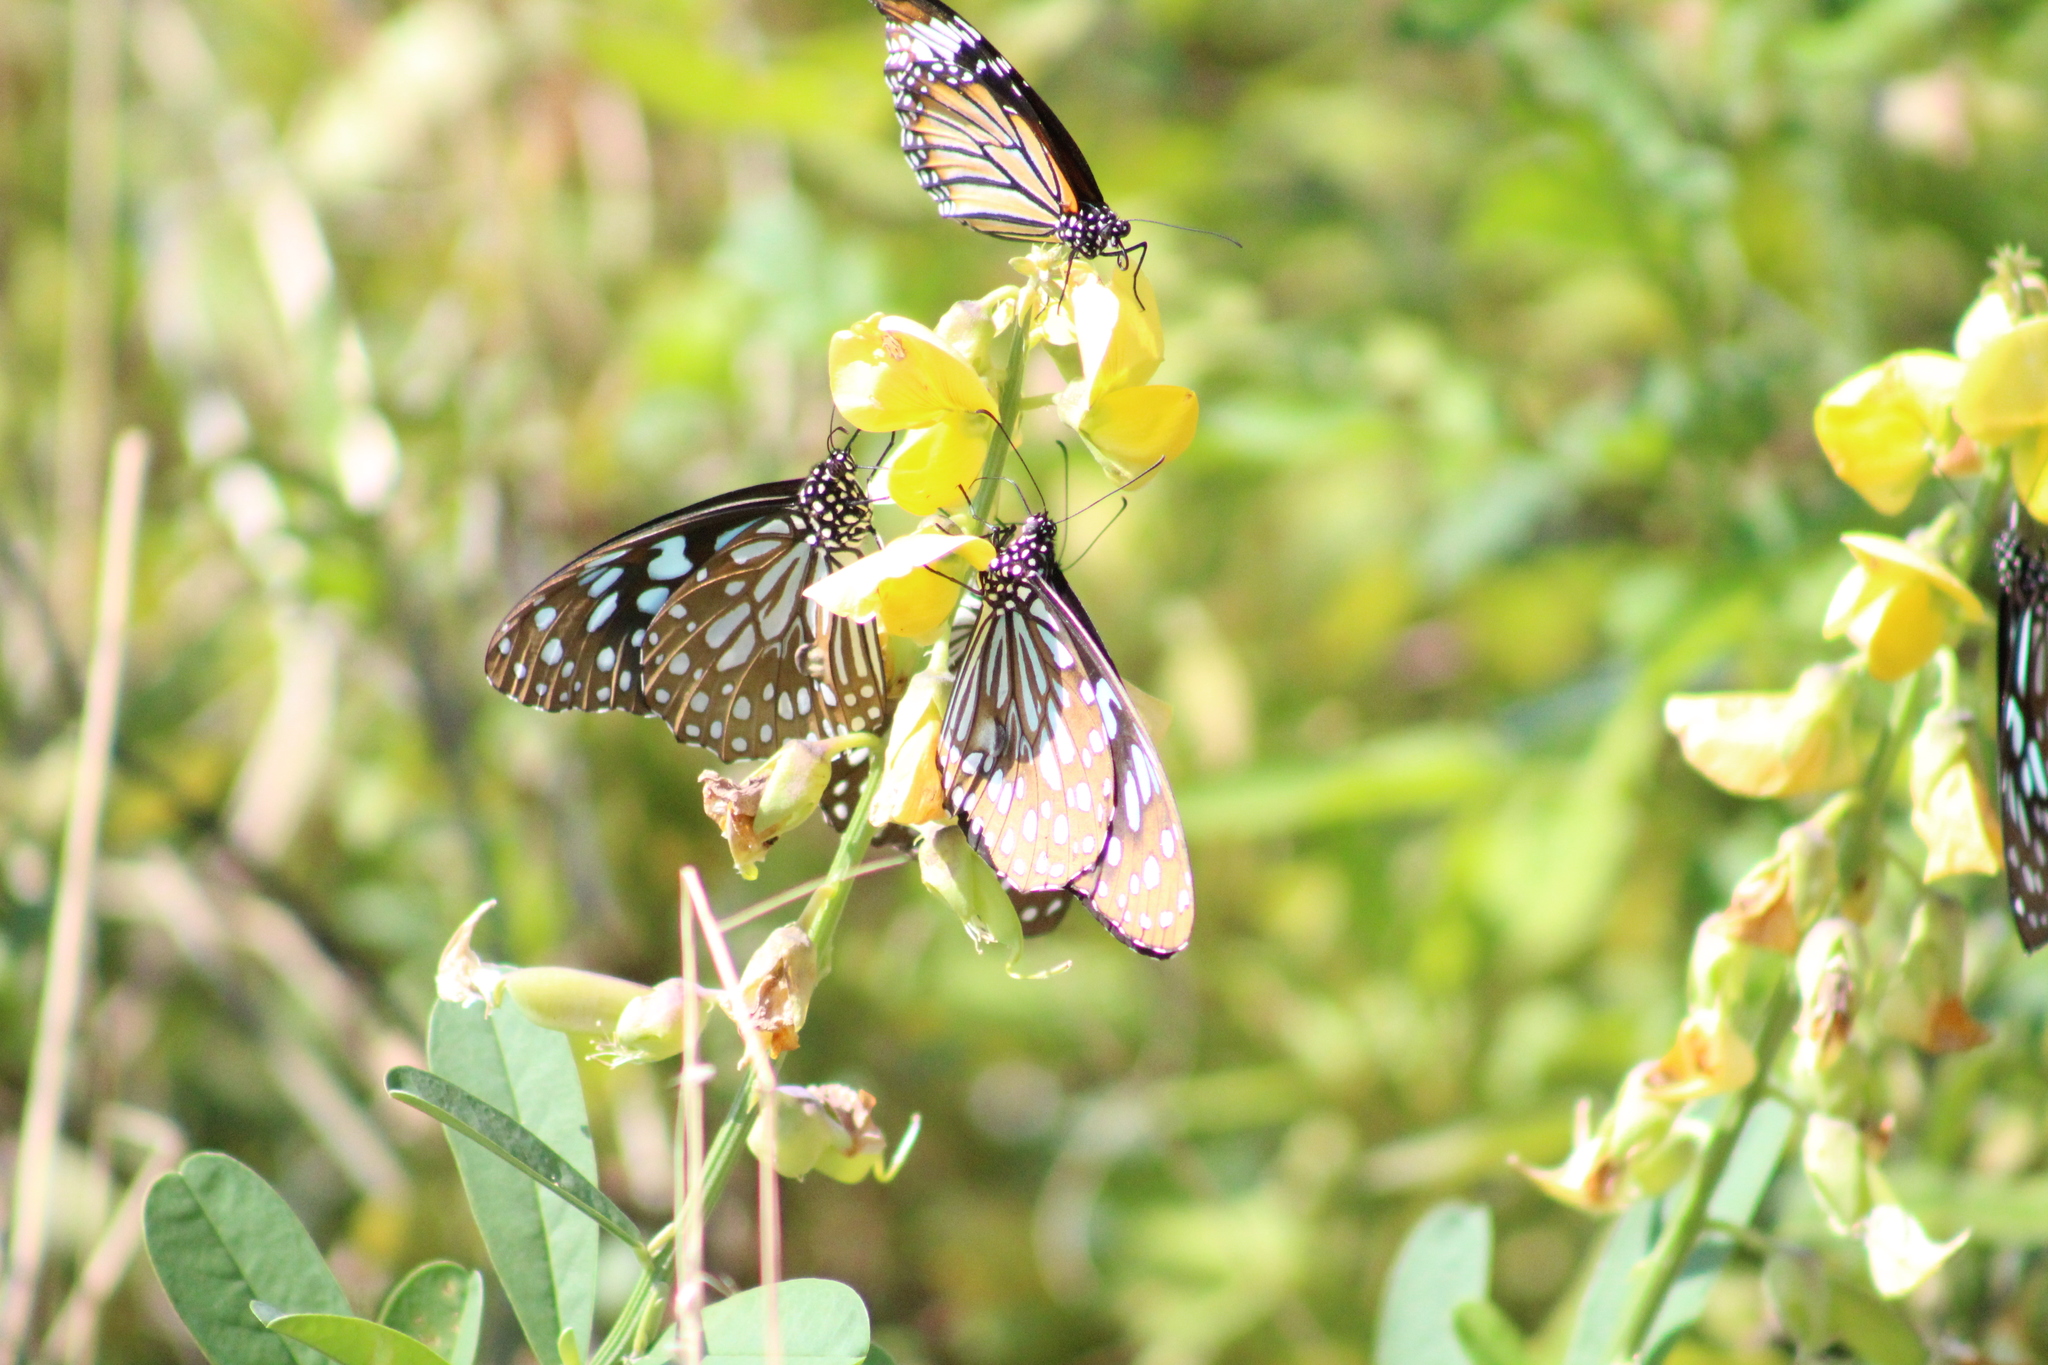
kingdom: Animalia
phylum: Arthropoda
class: Insecta
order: Lepidoptera
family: Nymphalidae
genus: Tirumala
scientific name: Tirumala limniace
